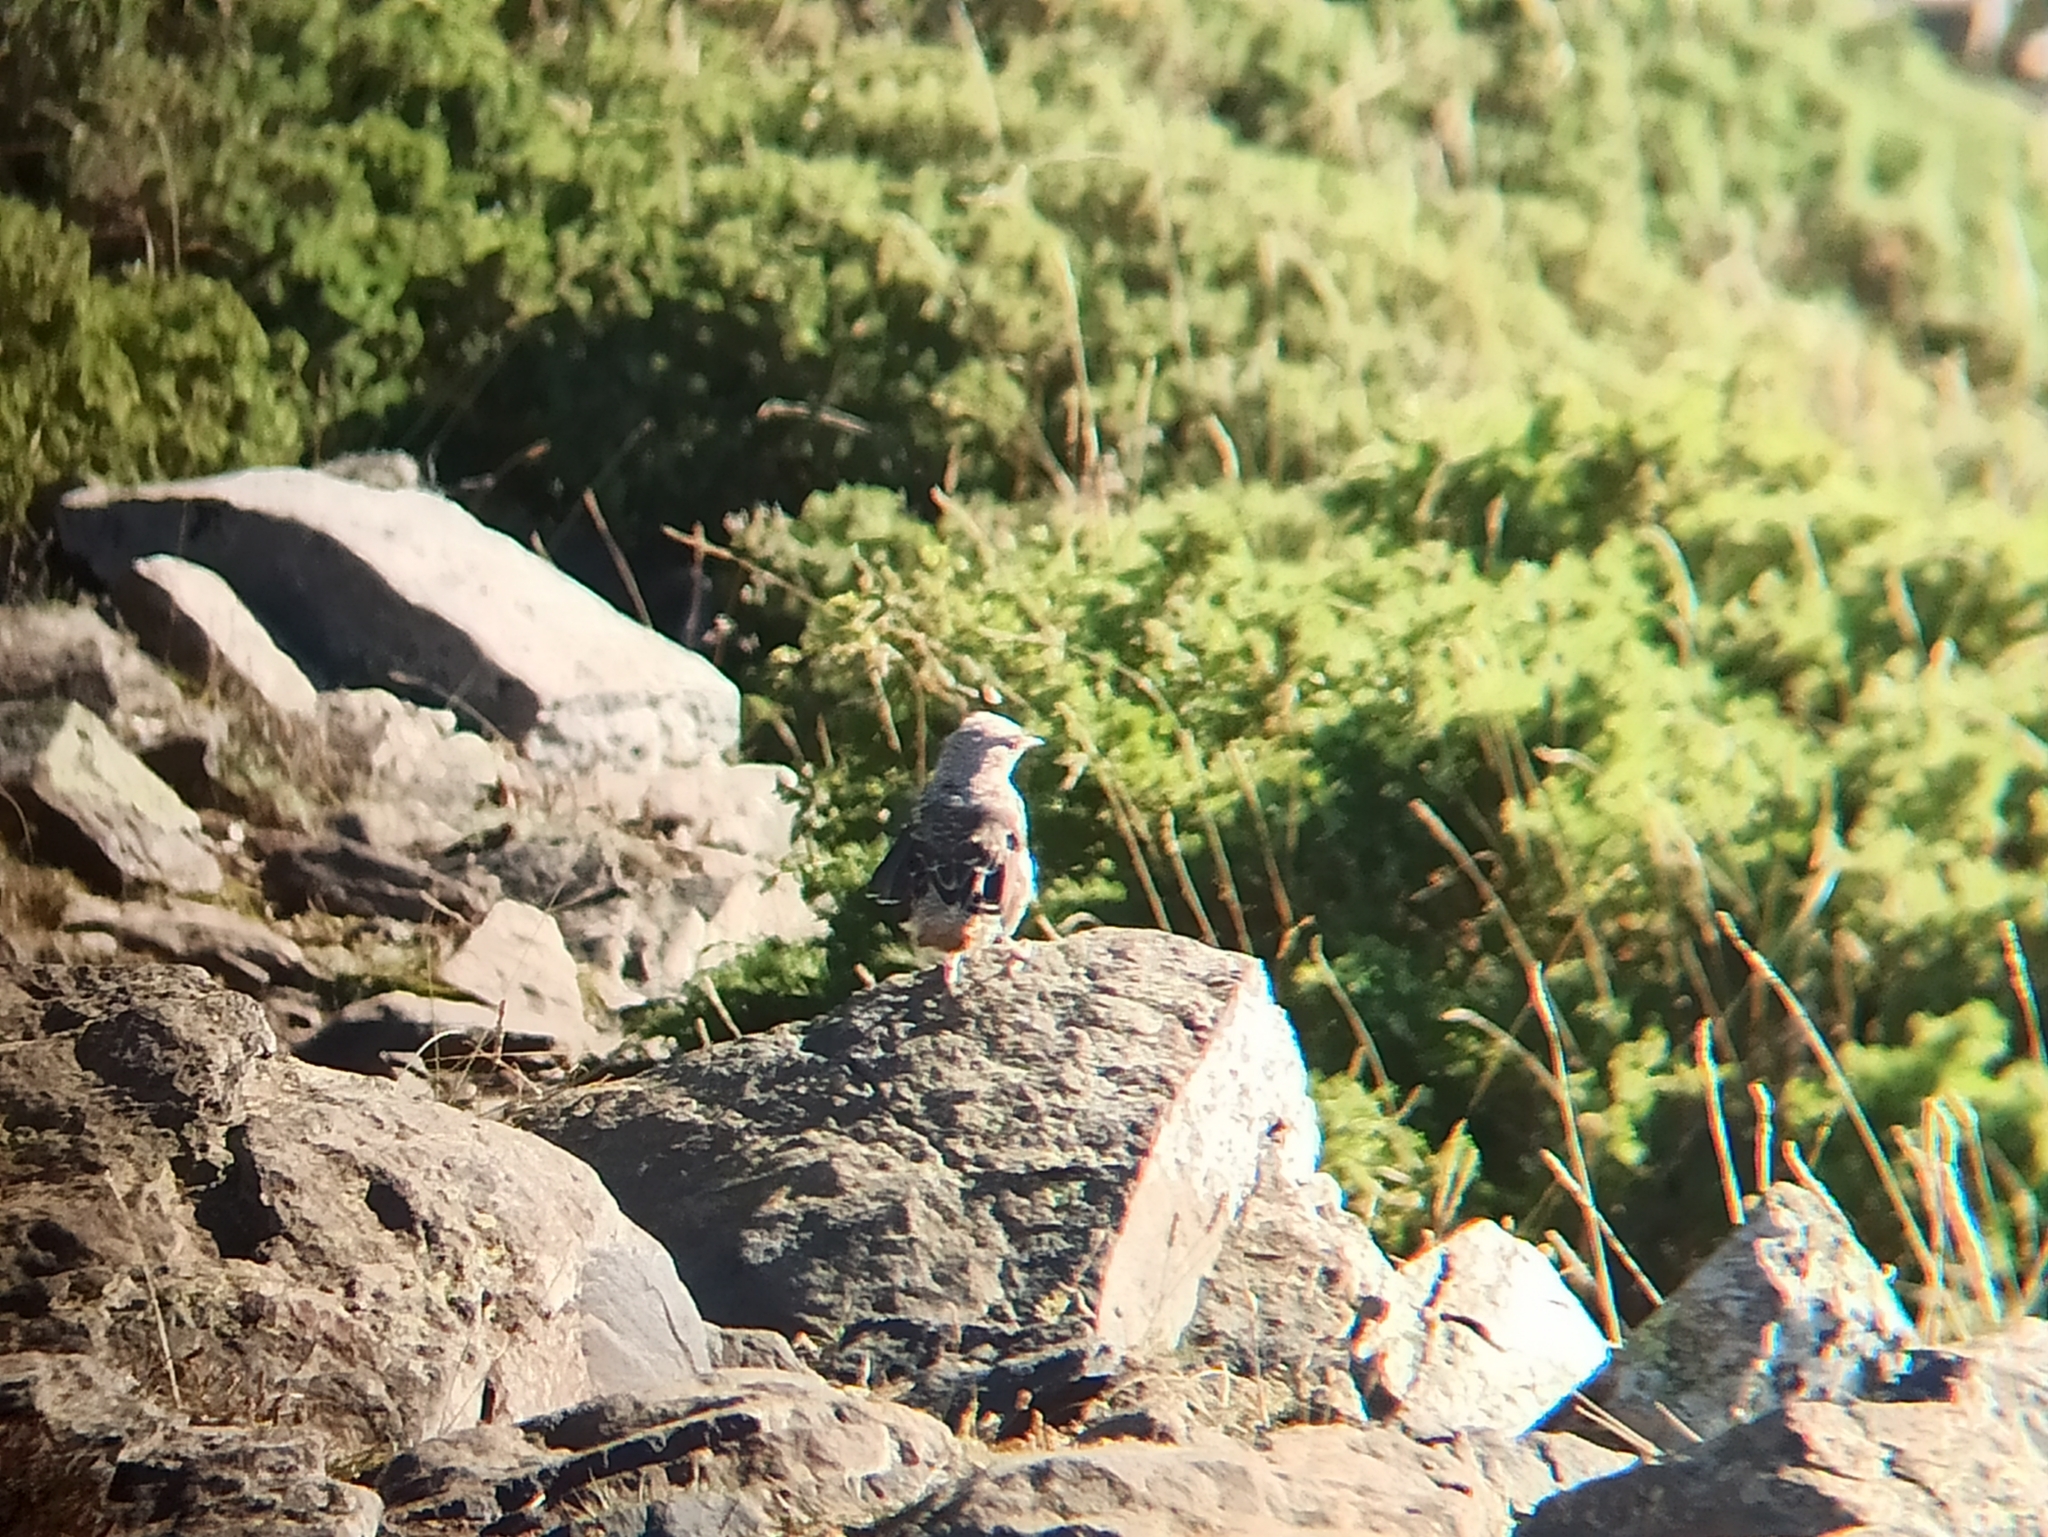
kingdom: Animalia
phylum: Chordata
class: Aves
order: Passeriformes
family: Muscicapidae
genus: Monticola
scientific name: Monticola saxatilis
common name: Rufous-tailed rock thrush
